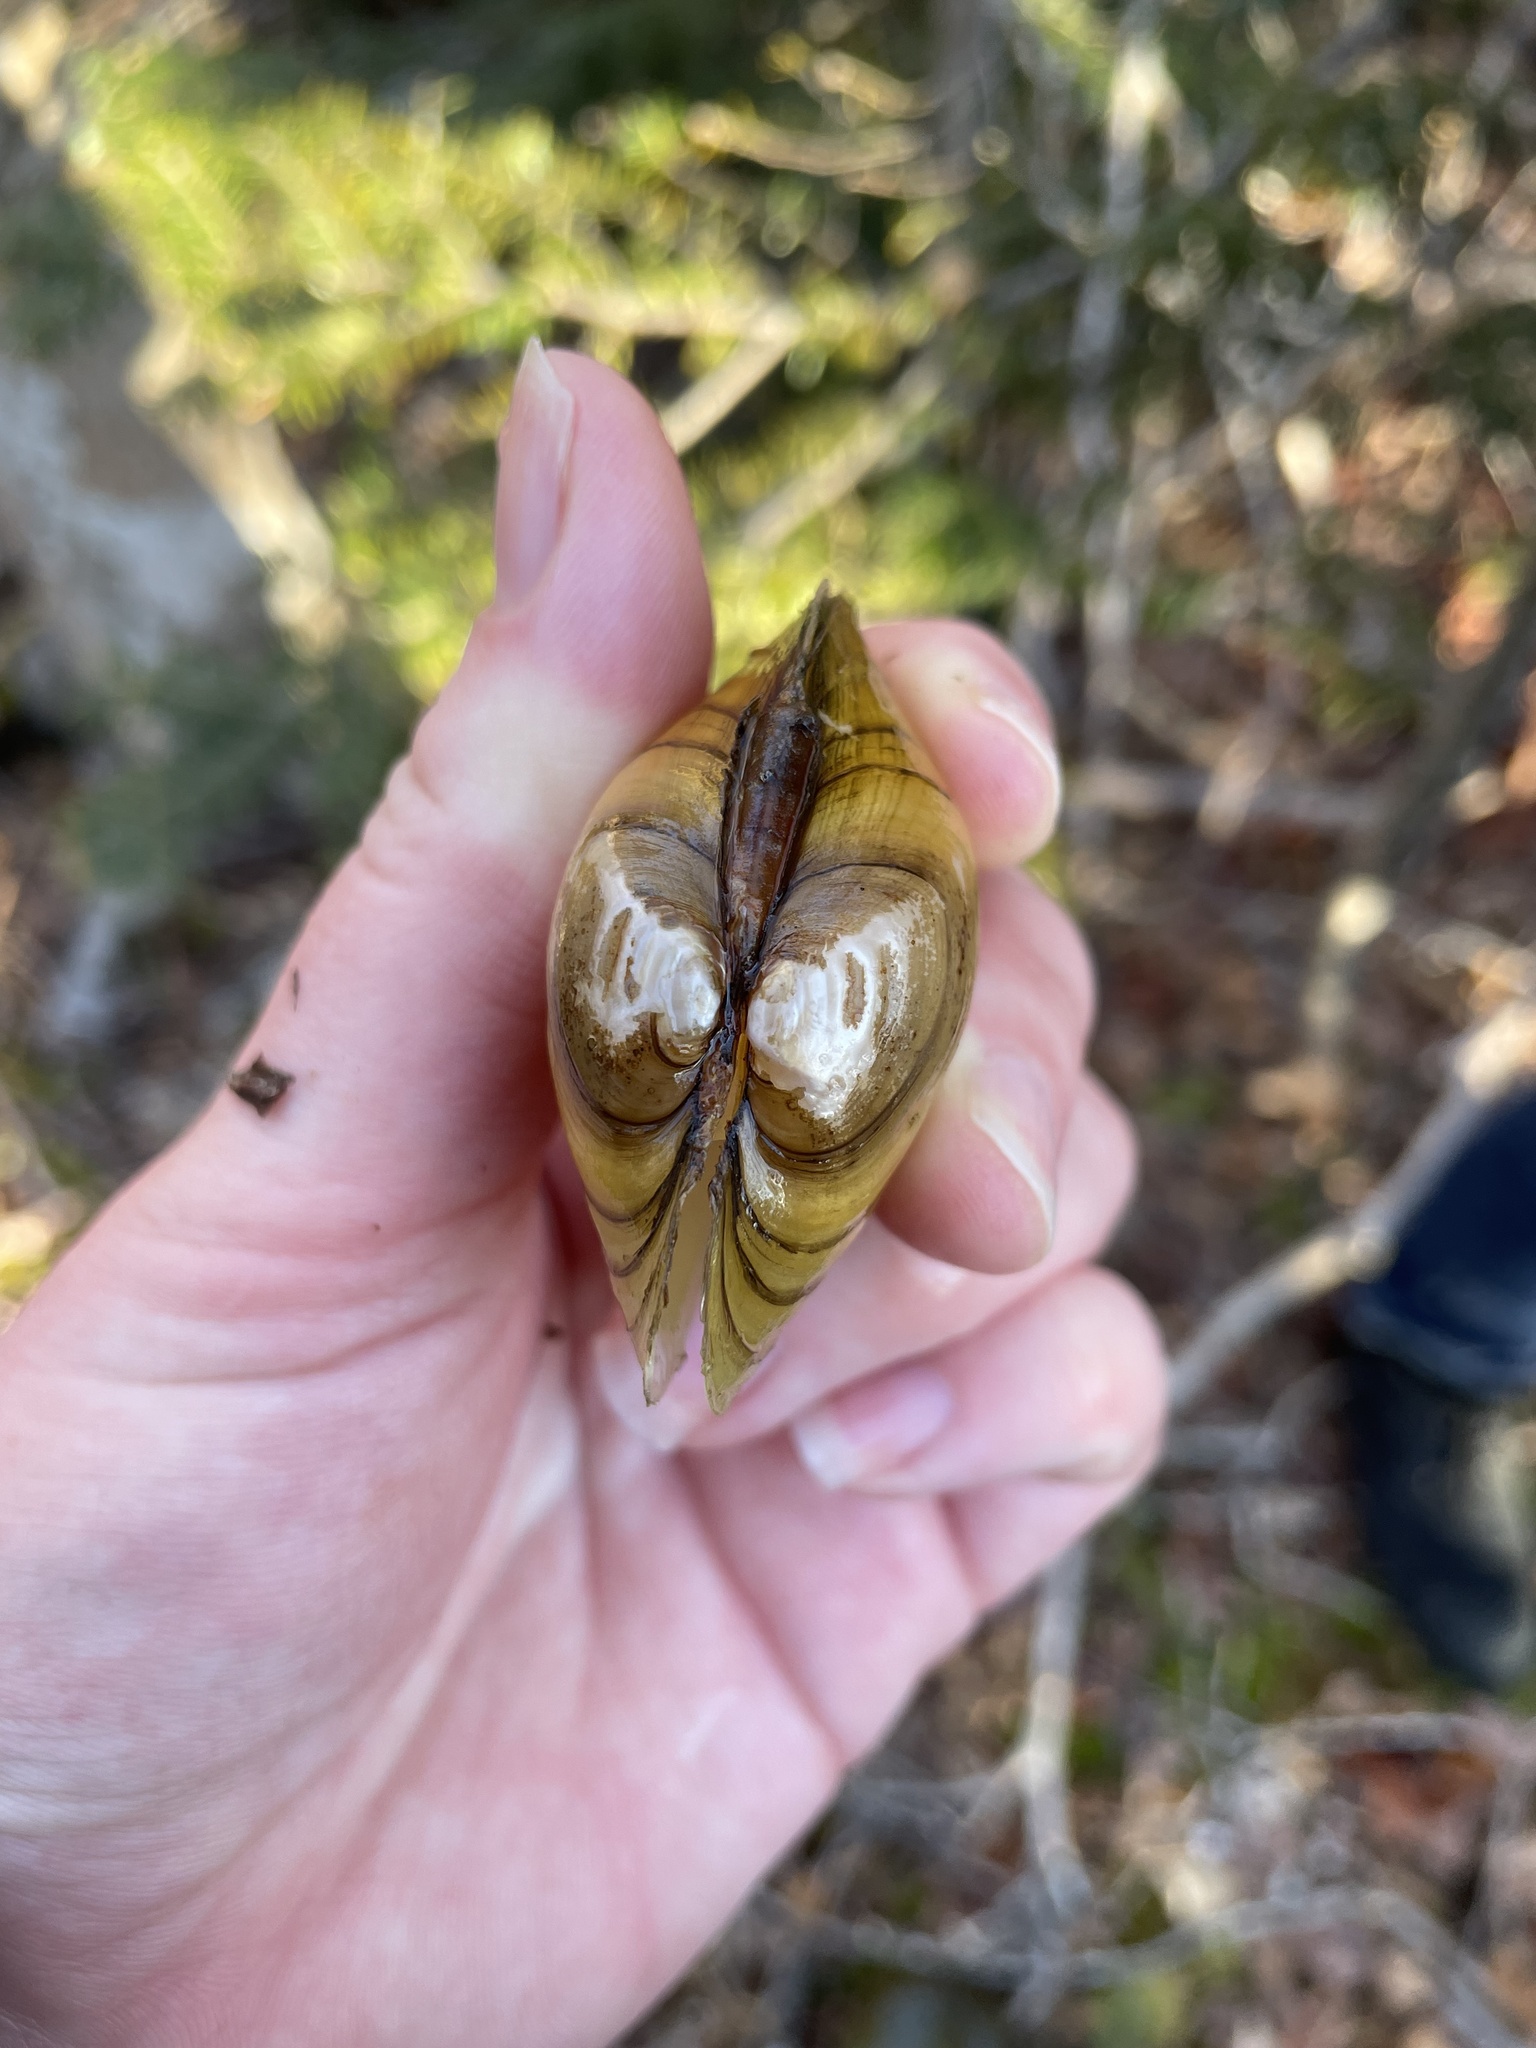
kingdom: Animalia
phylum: Mollusca
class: Bivalvia
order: Unionida
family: Unionidae
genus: Lampsilis
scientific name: Lampsilis cariosa
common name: Yellow lampmussel
